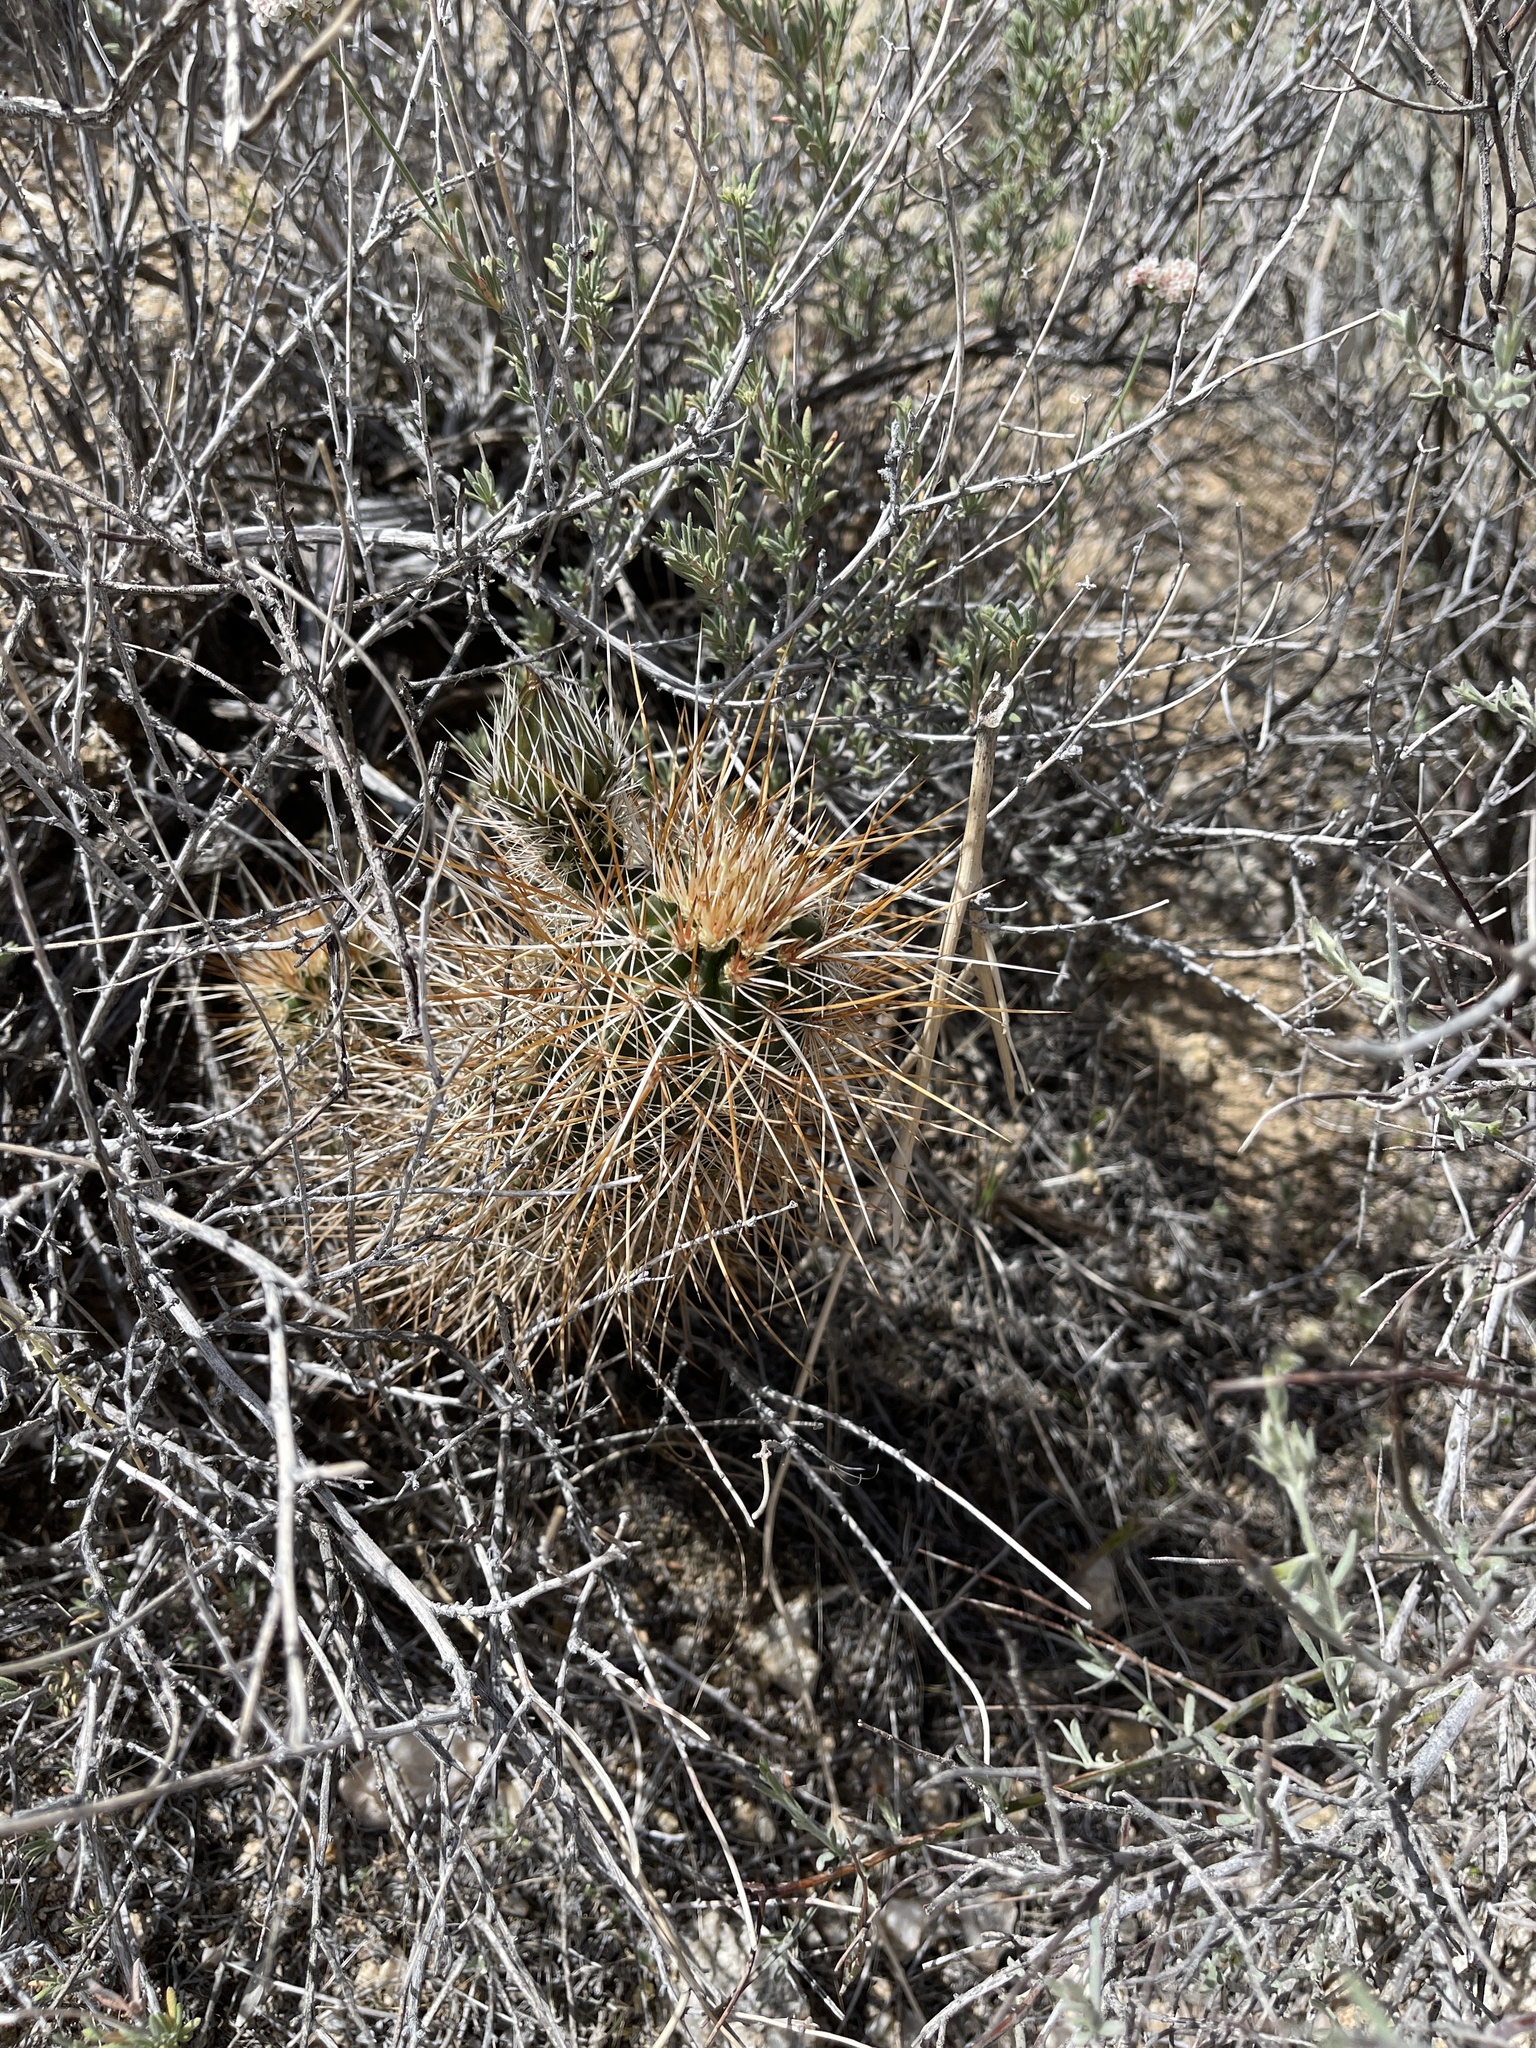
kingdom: Plantae
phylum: Tracheophyta
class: Magnoliopsida
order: Caryophyllales
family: Cactaceae
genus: Echinocereus
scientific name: Echinocereus engelmannii
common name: Engelmann's hedgehog cactus
